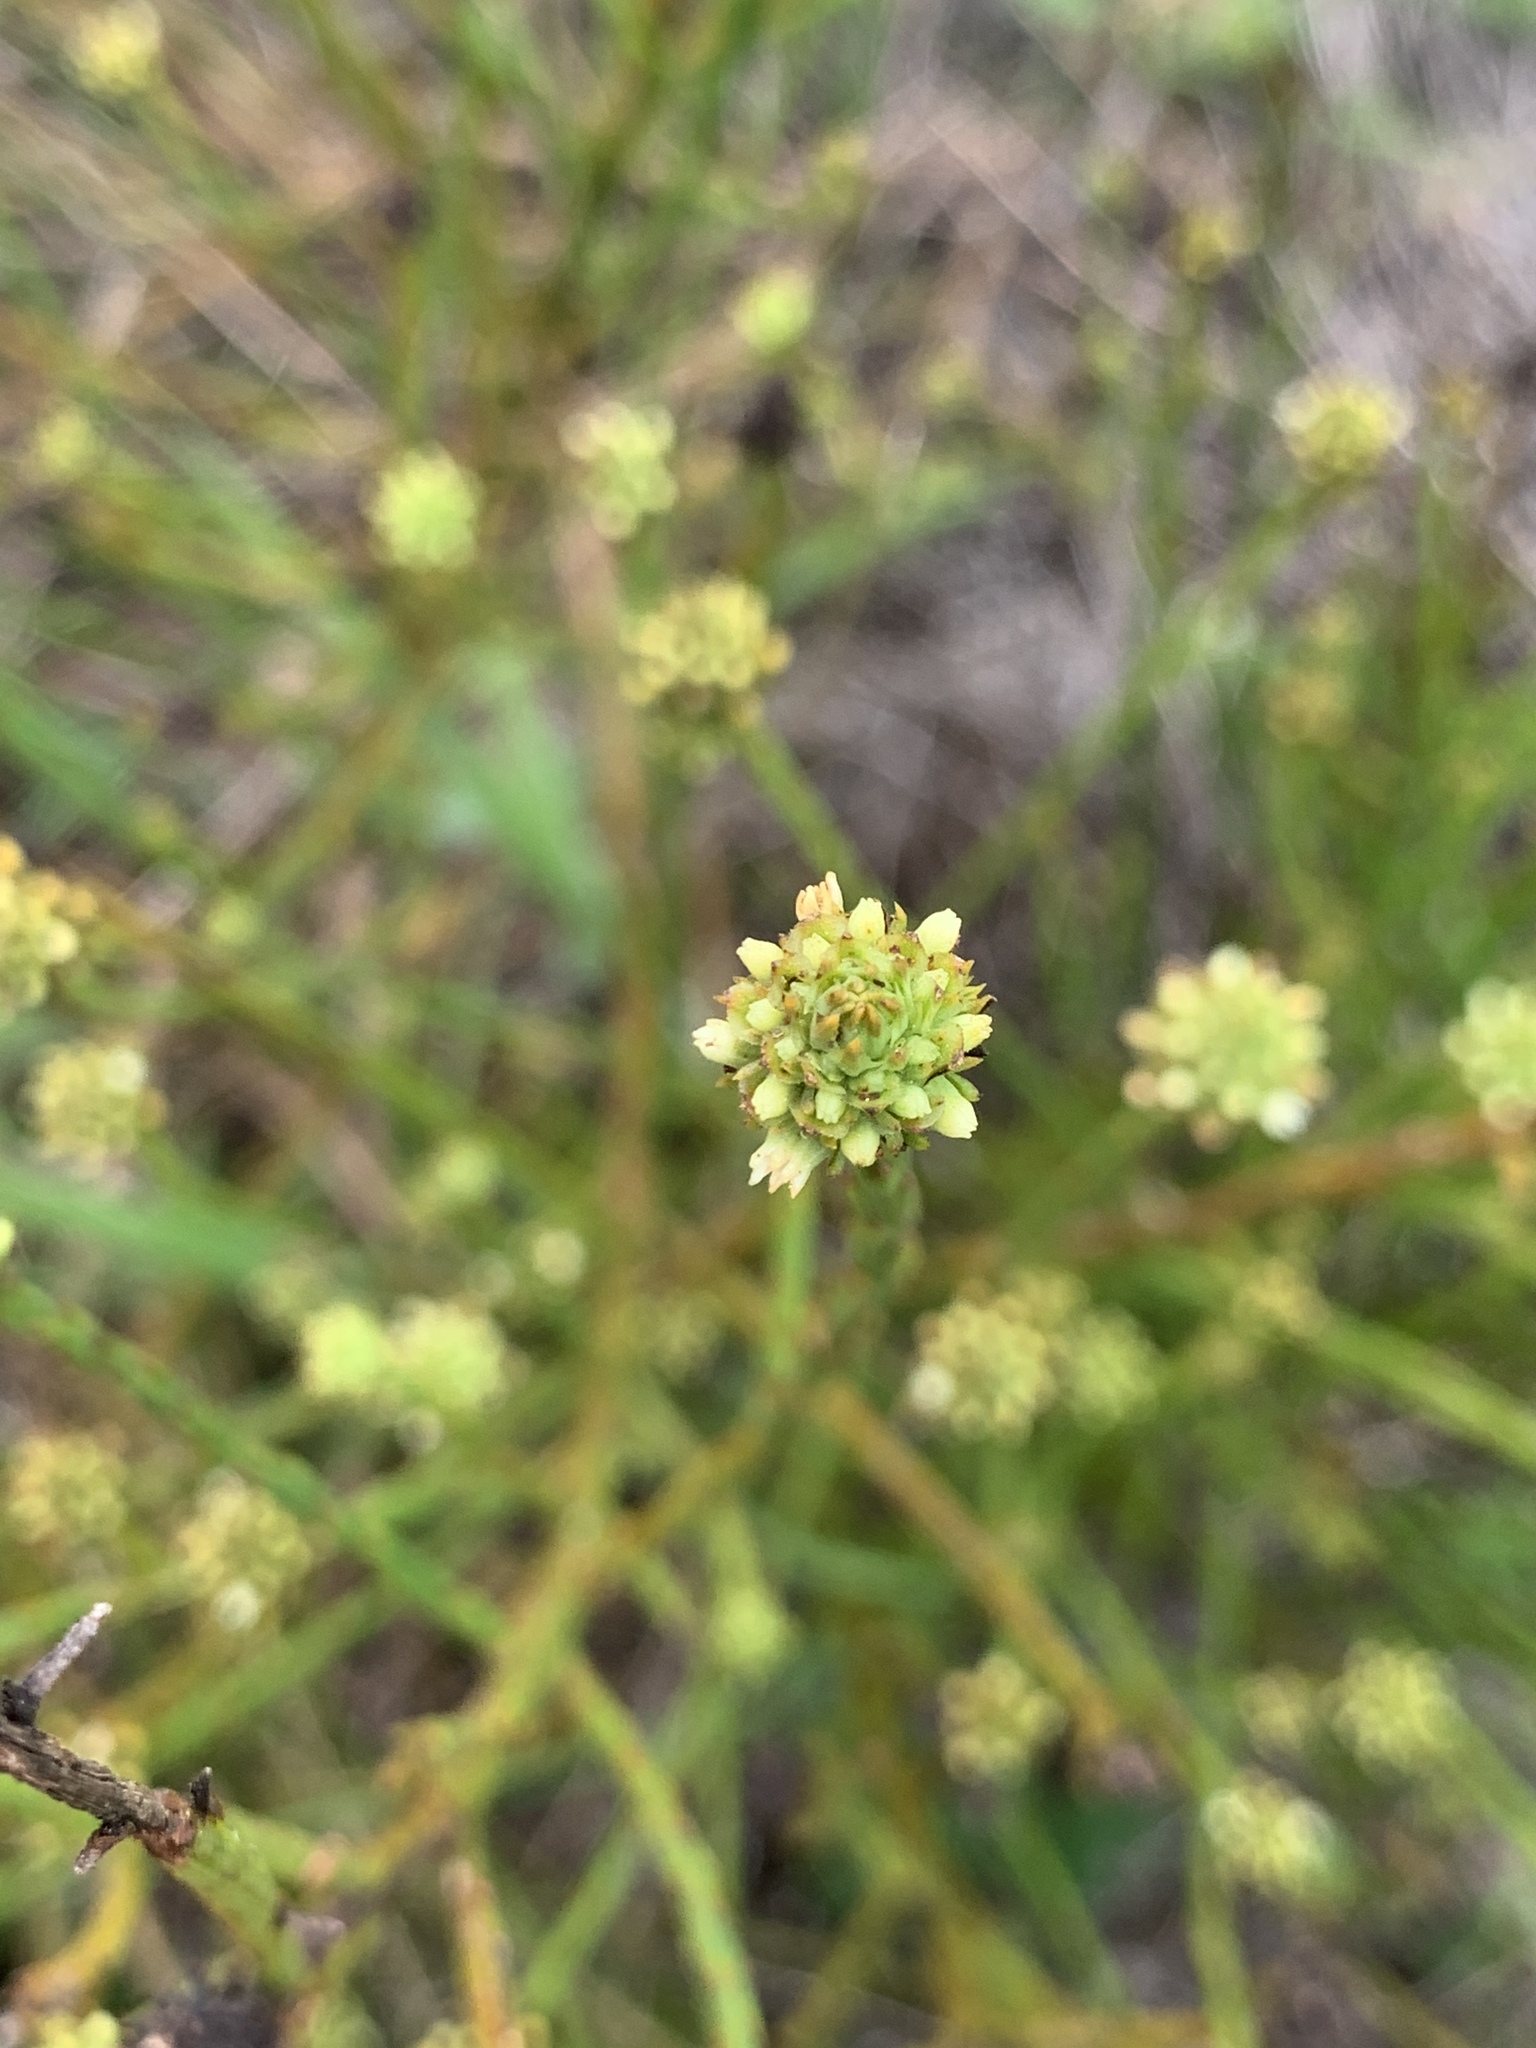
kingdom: Plantae
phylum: Tracheophyta
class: Magnoliopsida
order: Santalales
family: Thesiaceae
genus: Thesium
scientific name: Thesium aggregatum
